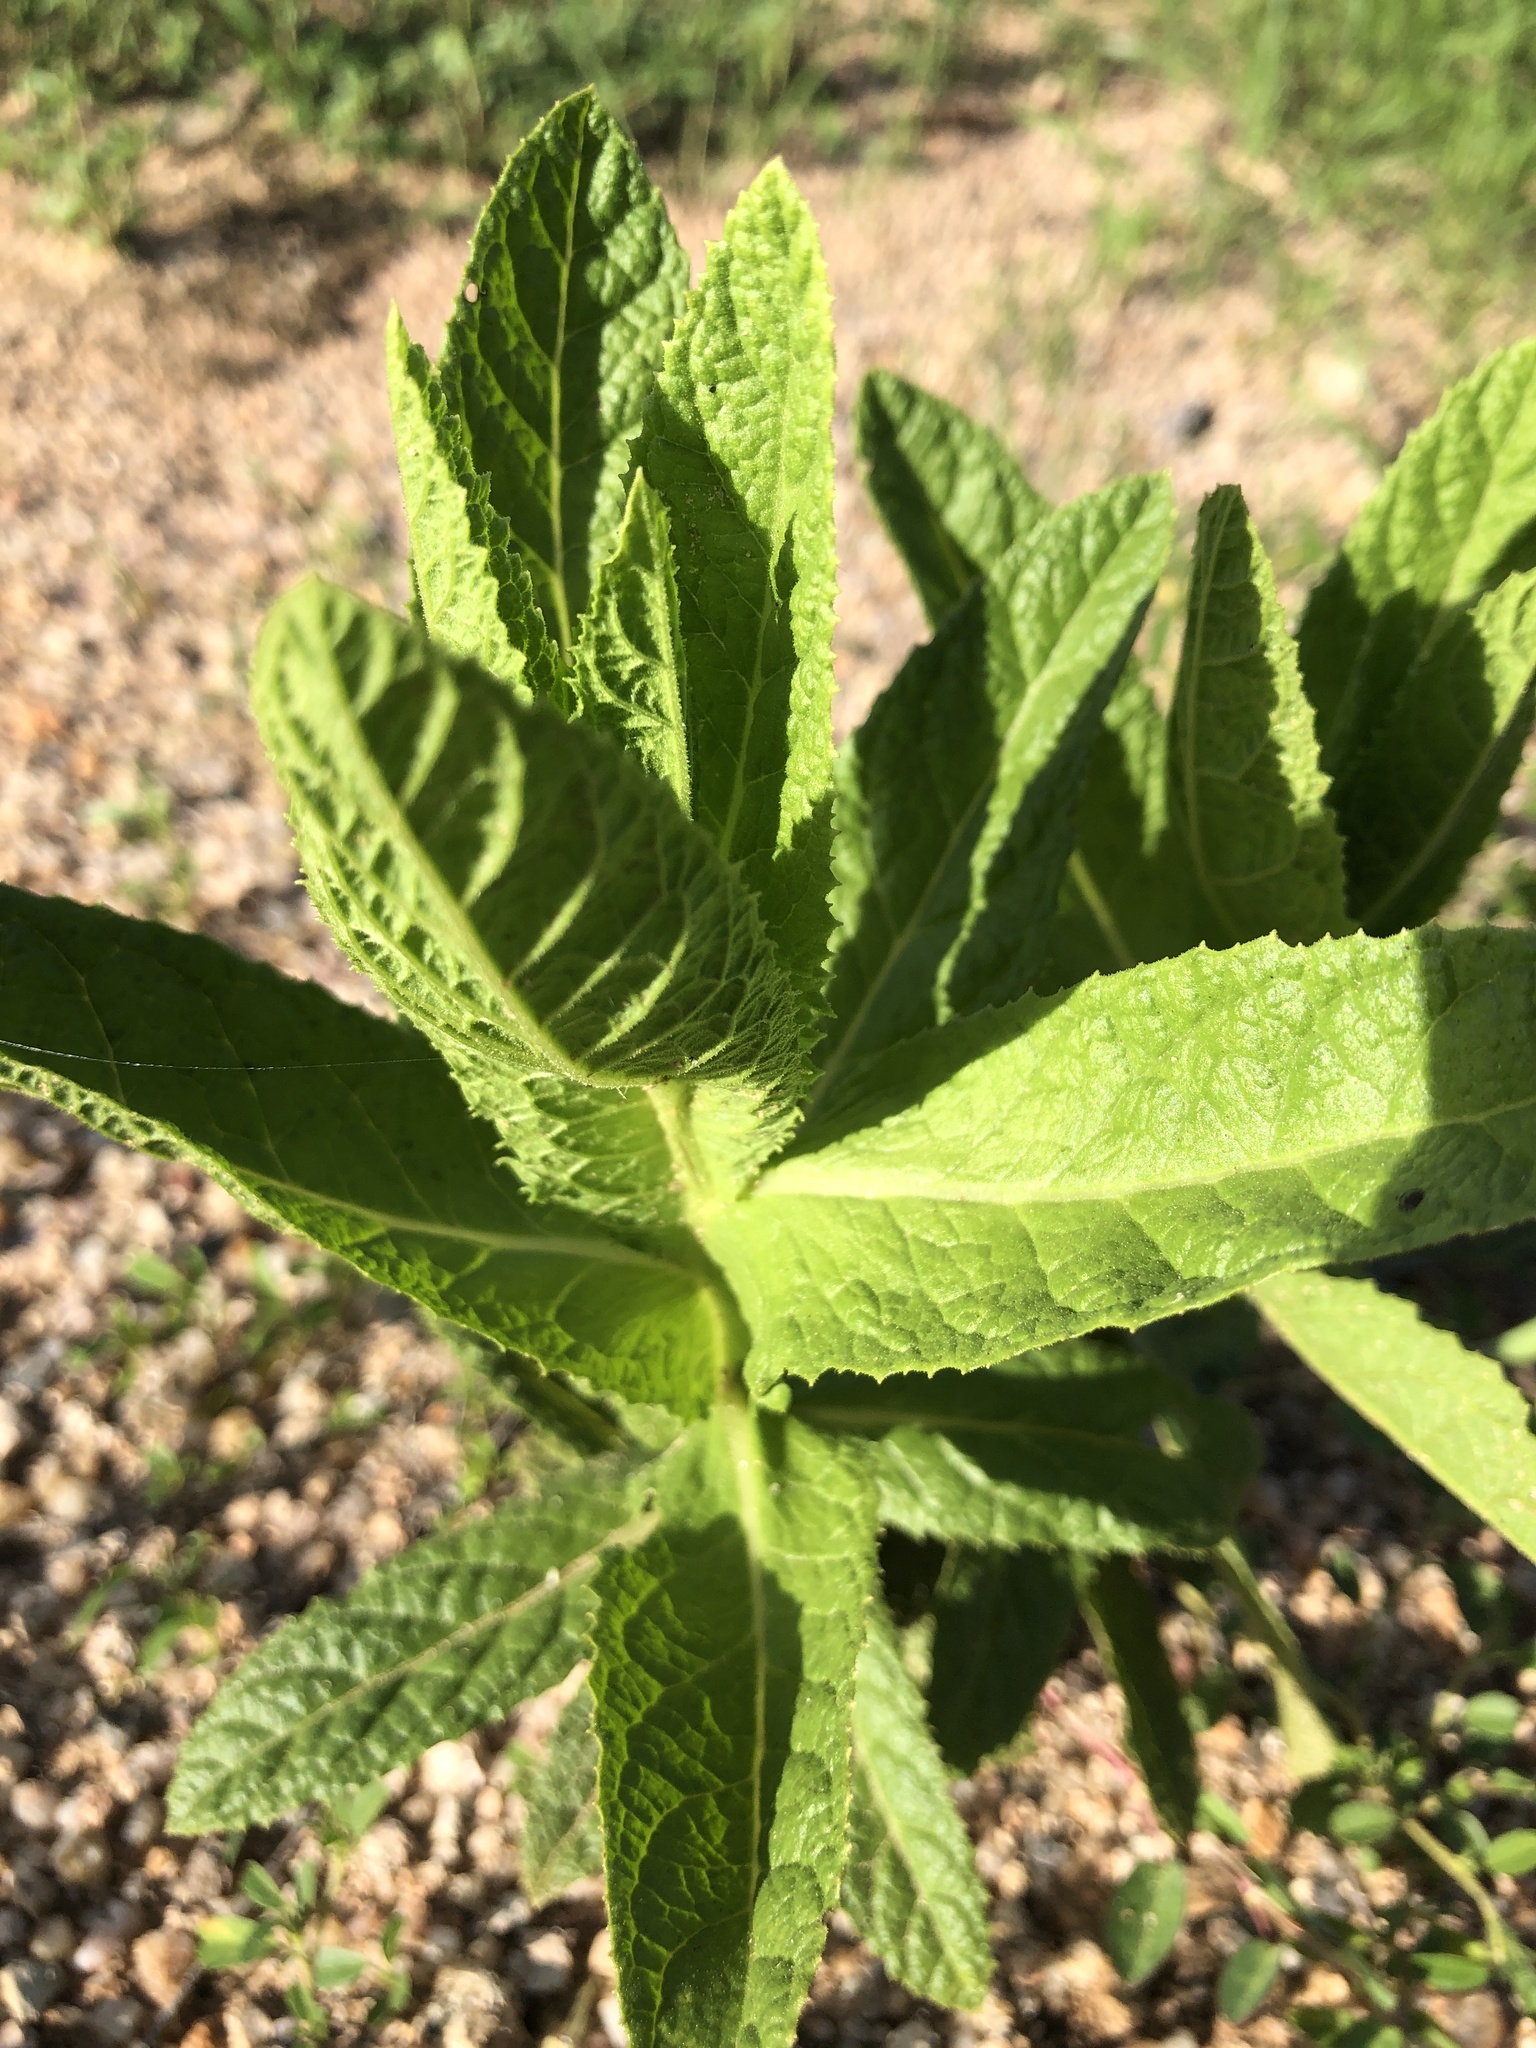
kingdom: Plantae
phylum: Tracheophyta
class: Magnoliopsida
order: Asterales
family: Asteraceae
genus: Pterocaulon
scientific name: Pterocaulon serrulatum
